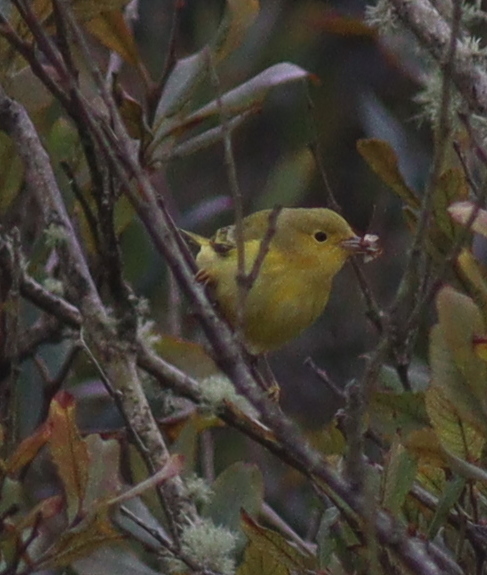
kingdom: Animalia
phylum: Chordata
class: Aves
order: Passeriformes
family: Parulidae
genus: Setophaga
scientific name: Setophaga petechia
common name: Yellow warbler
